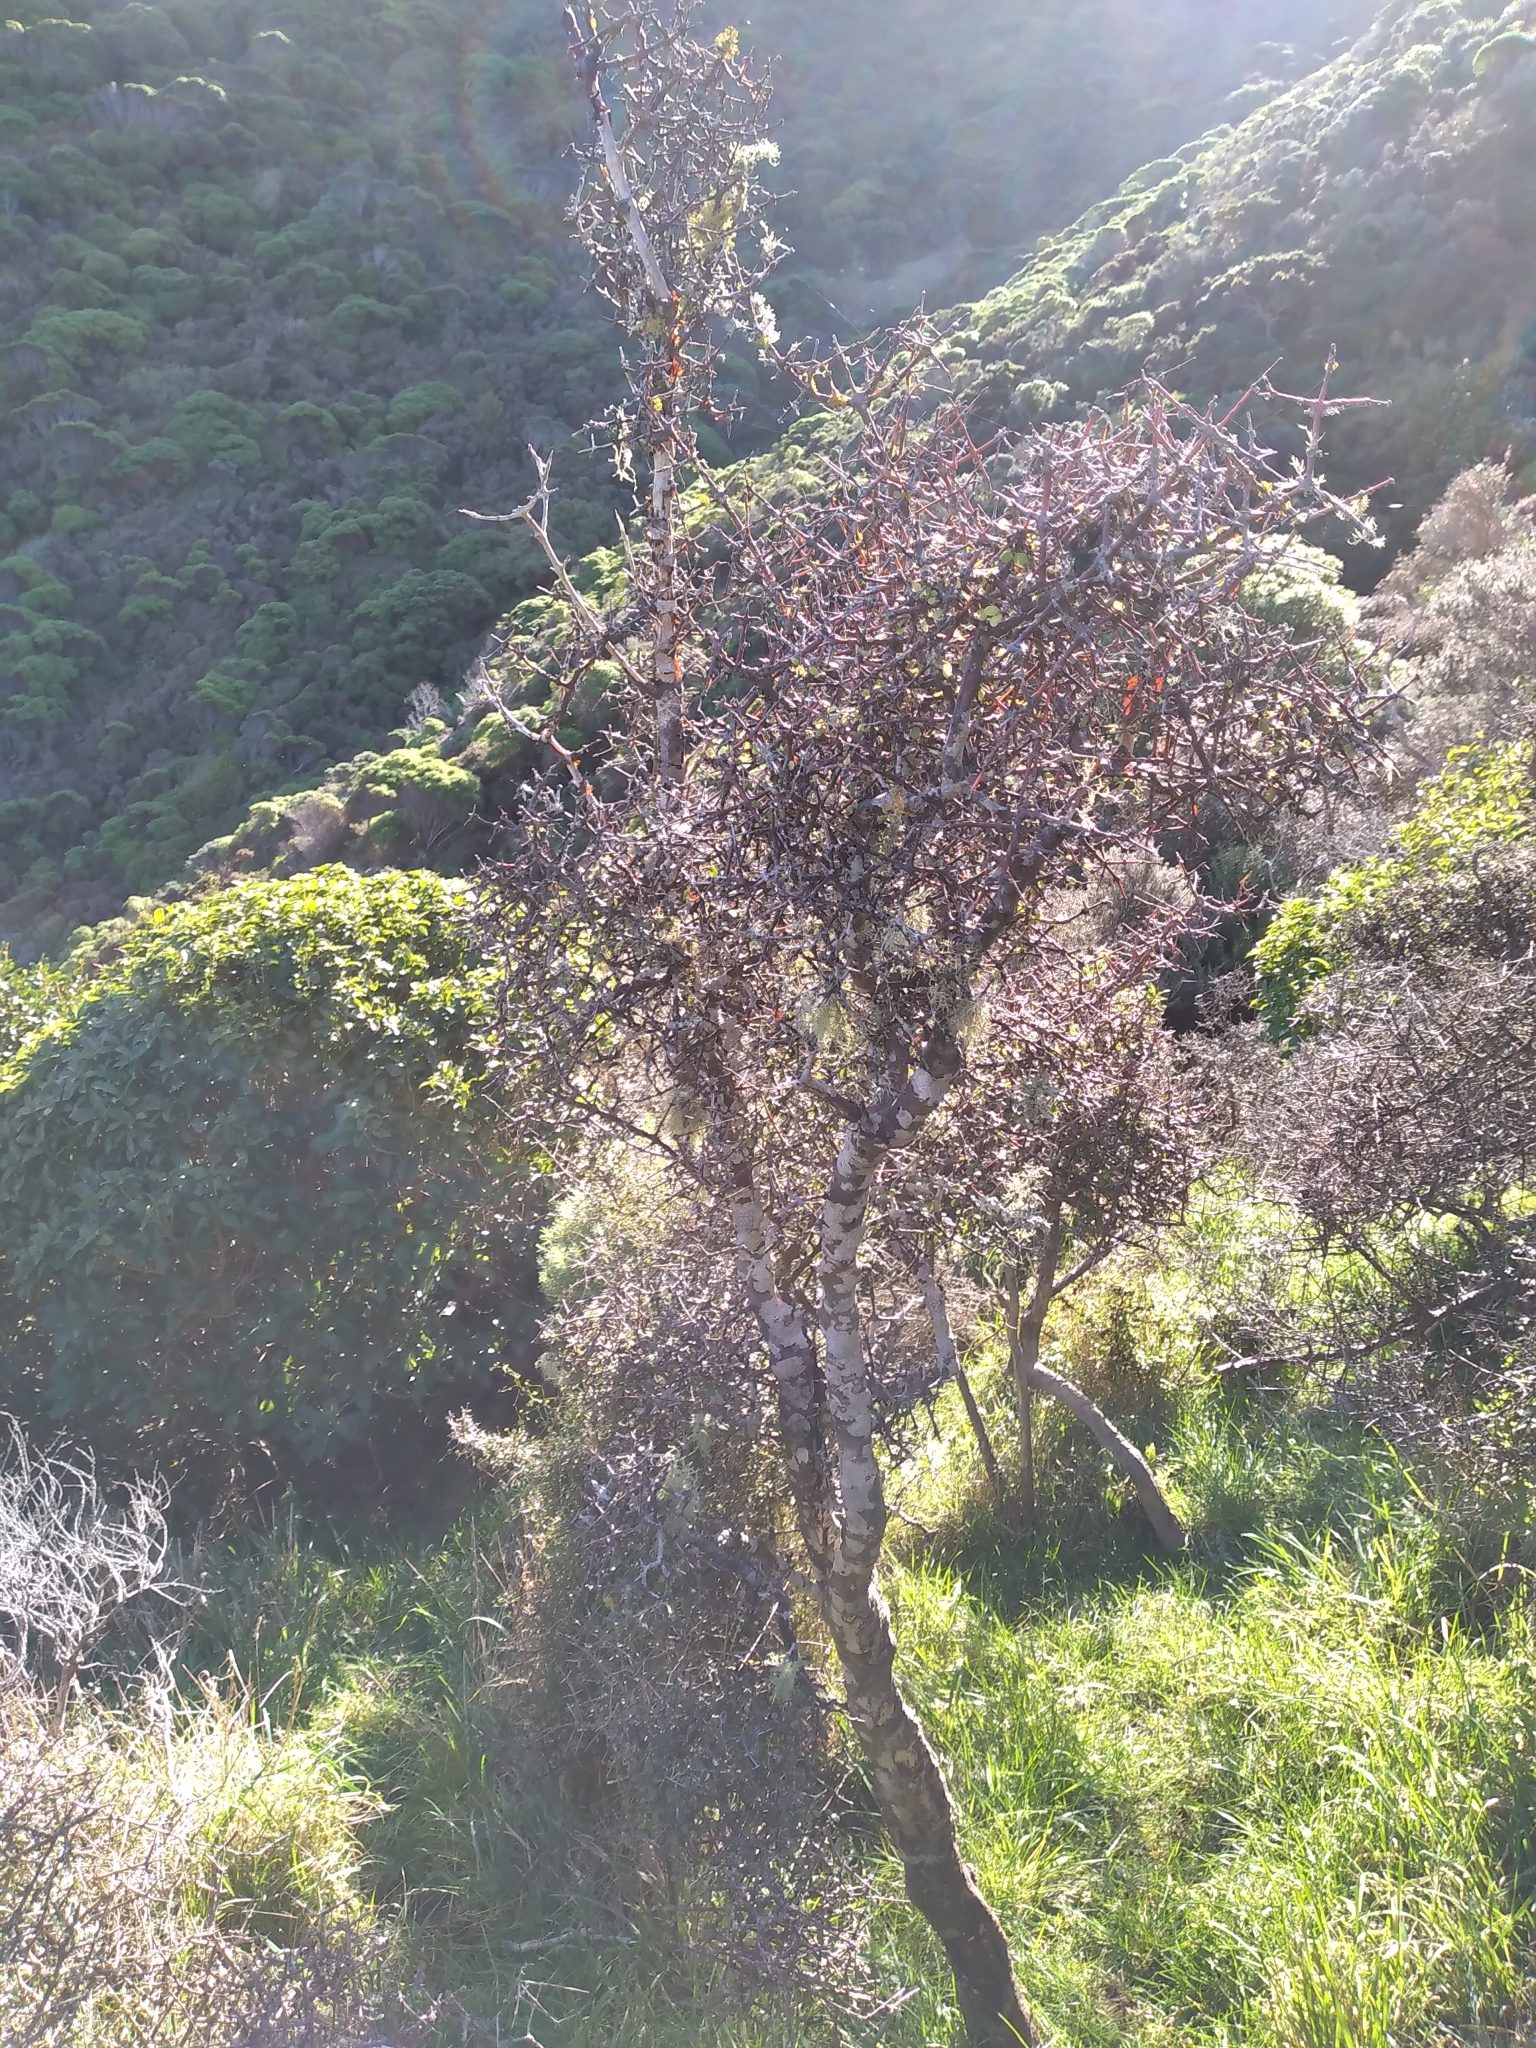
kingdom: Plantae
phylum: Tracheophyta
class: Magnoliopsida
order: Gentianales
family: Rubiaceae
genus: Coprosma
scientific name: Coprosma crassifolia
